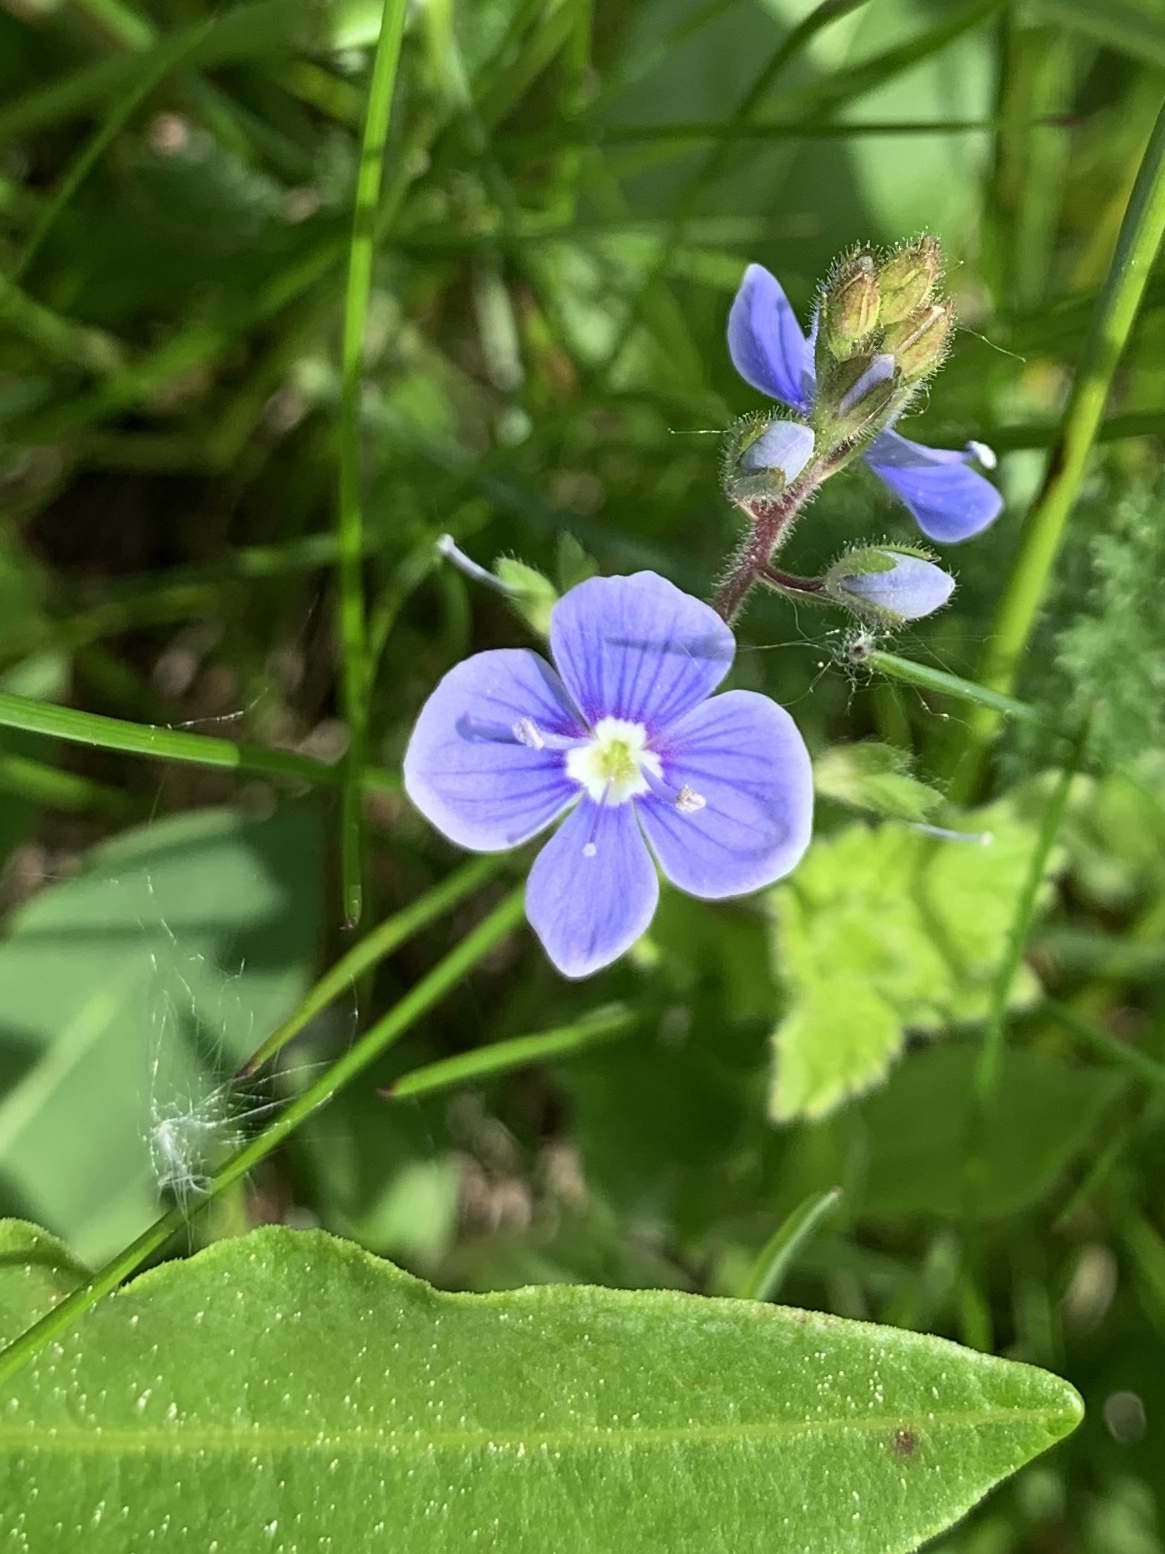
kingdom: Plantae
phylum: Tracheophyta
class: Magnoliopsida
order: Lamiales
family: Plantaginaceae
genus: Veronica
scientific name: Veronica chamaedrys
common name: Germander speedwell
